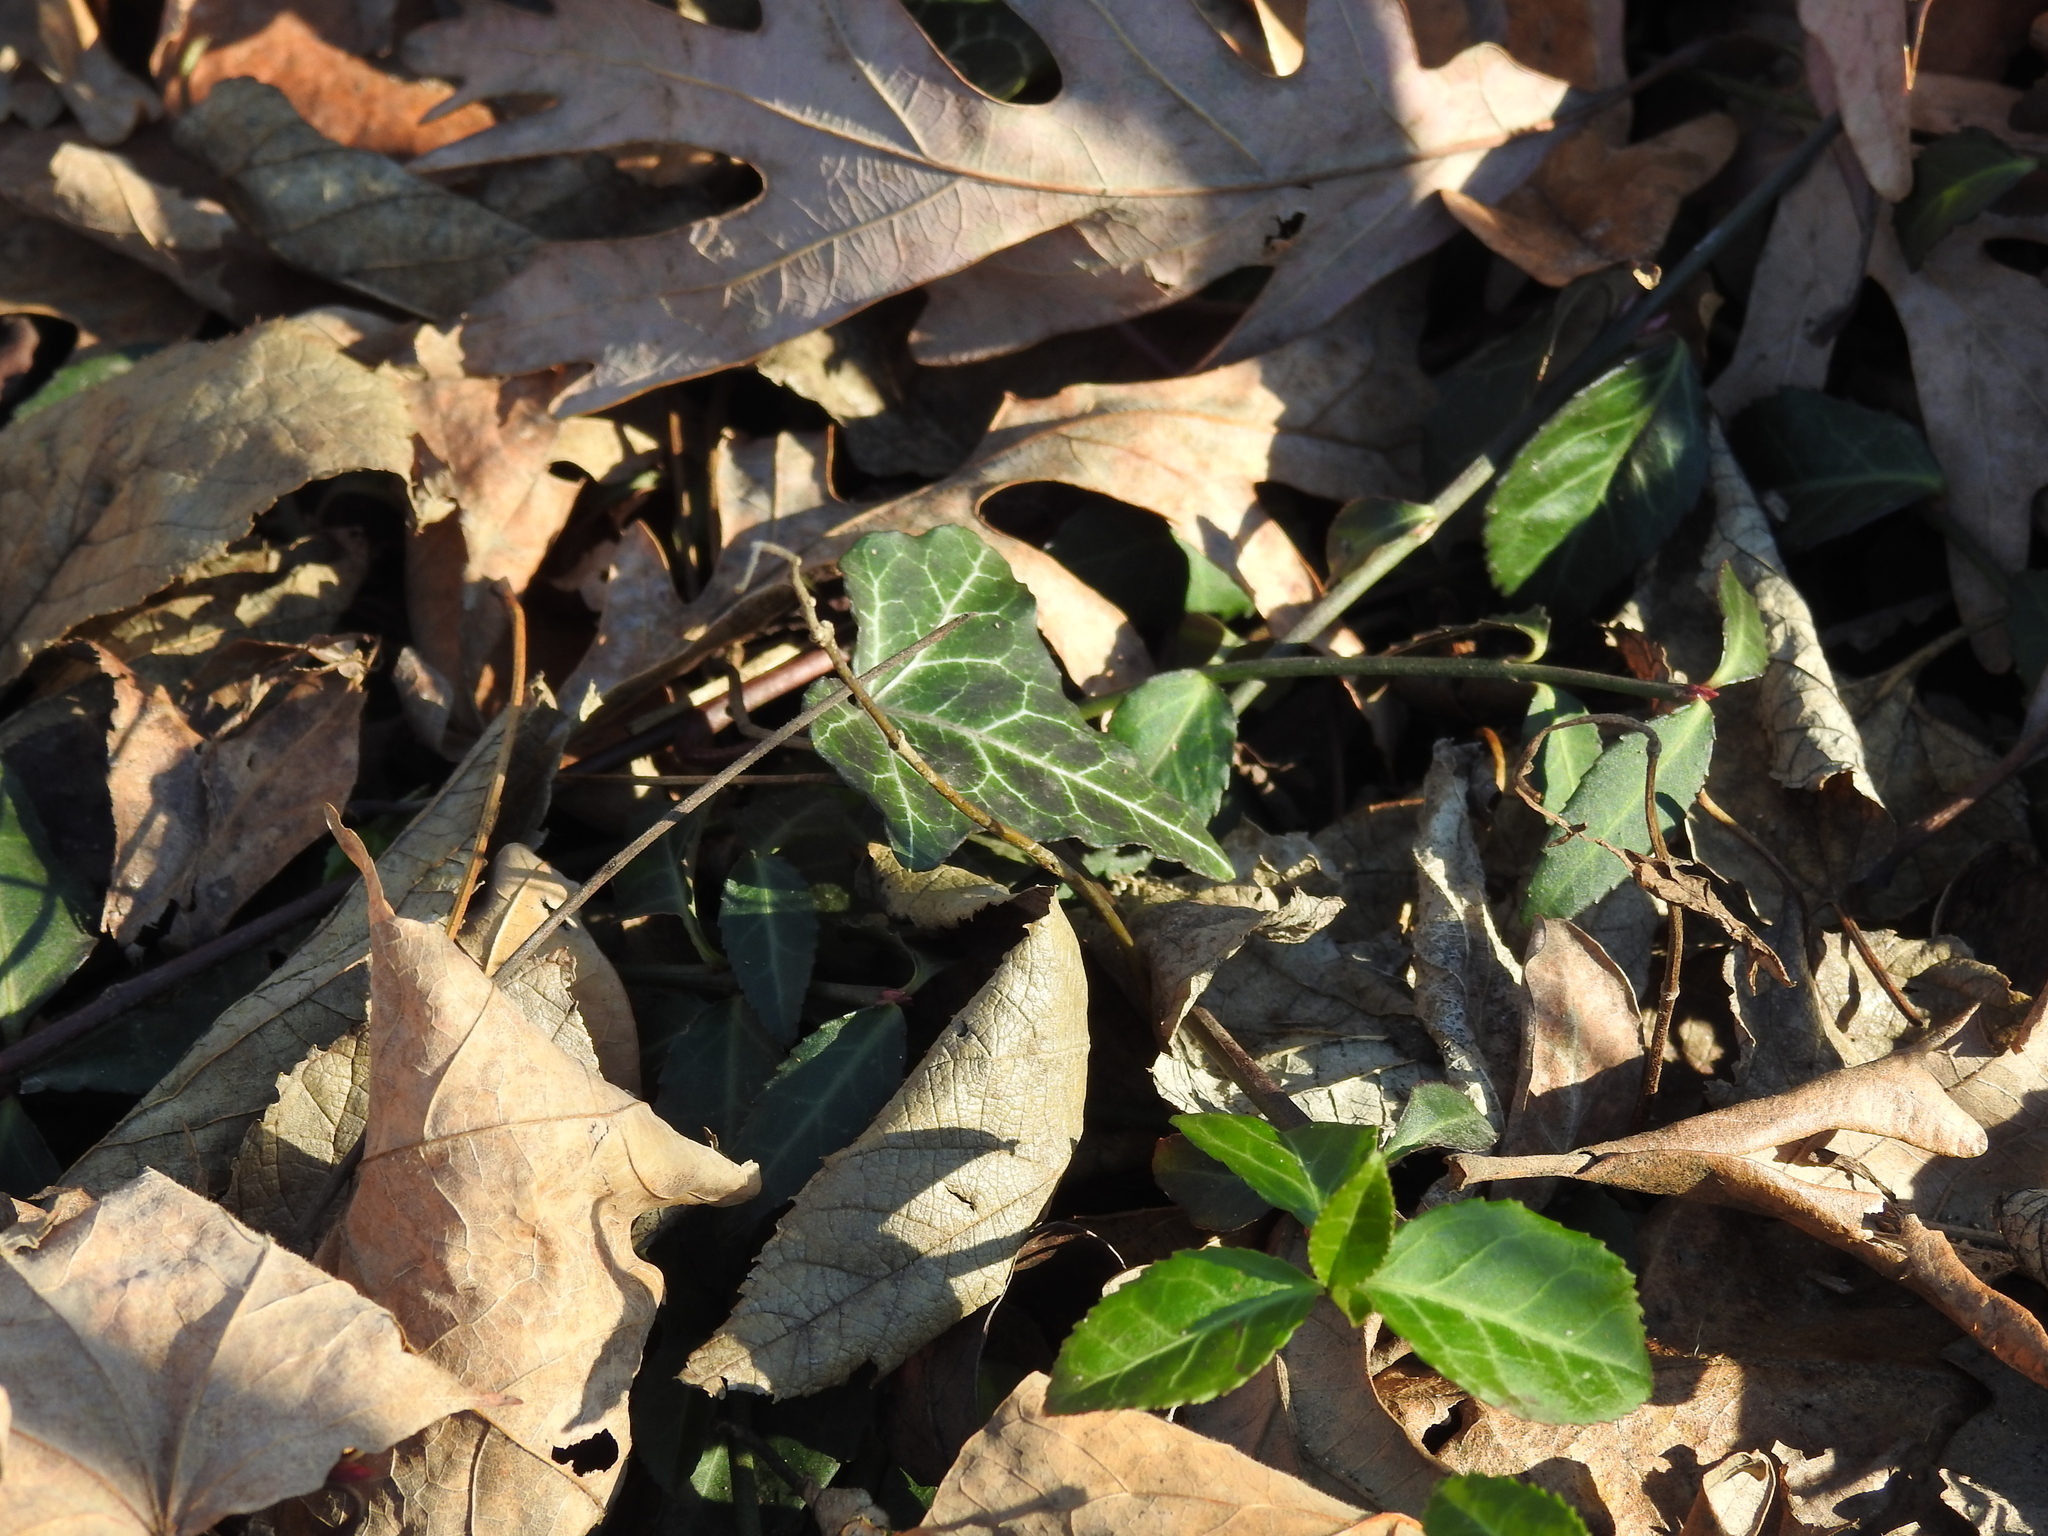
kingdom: Plantae
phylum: Tracheophyta
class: Magnoliopsida
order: Apiales
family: Araliaceae
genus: Hedera
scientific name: Hedera helix
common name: Ivy
